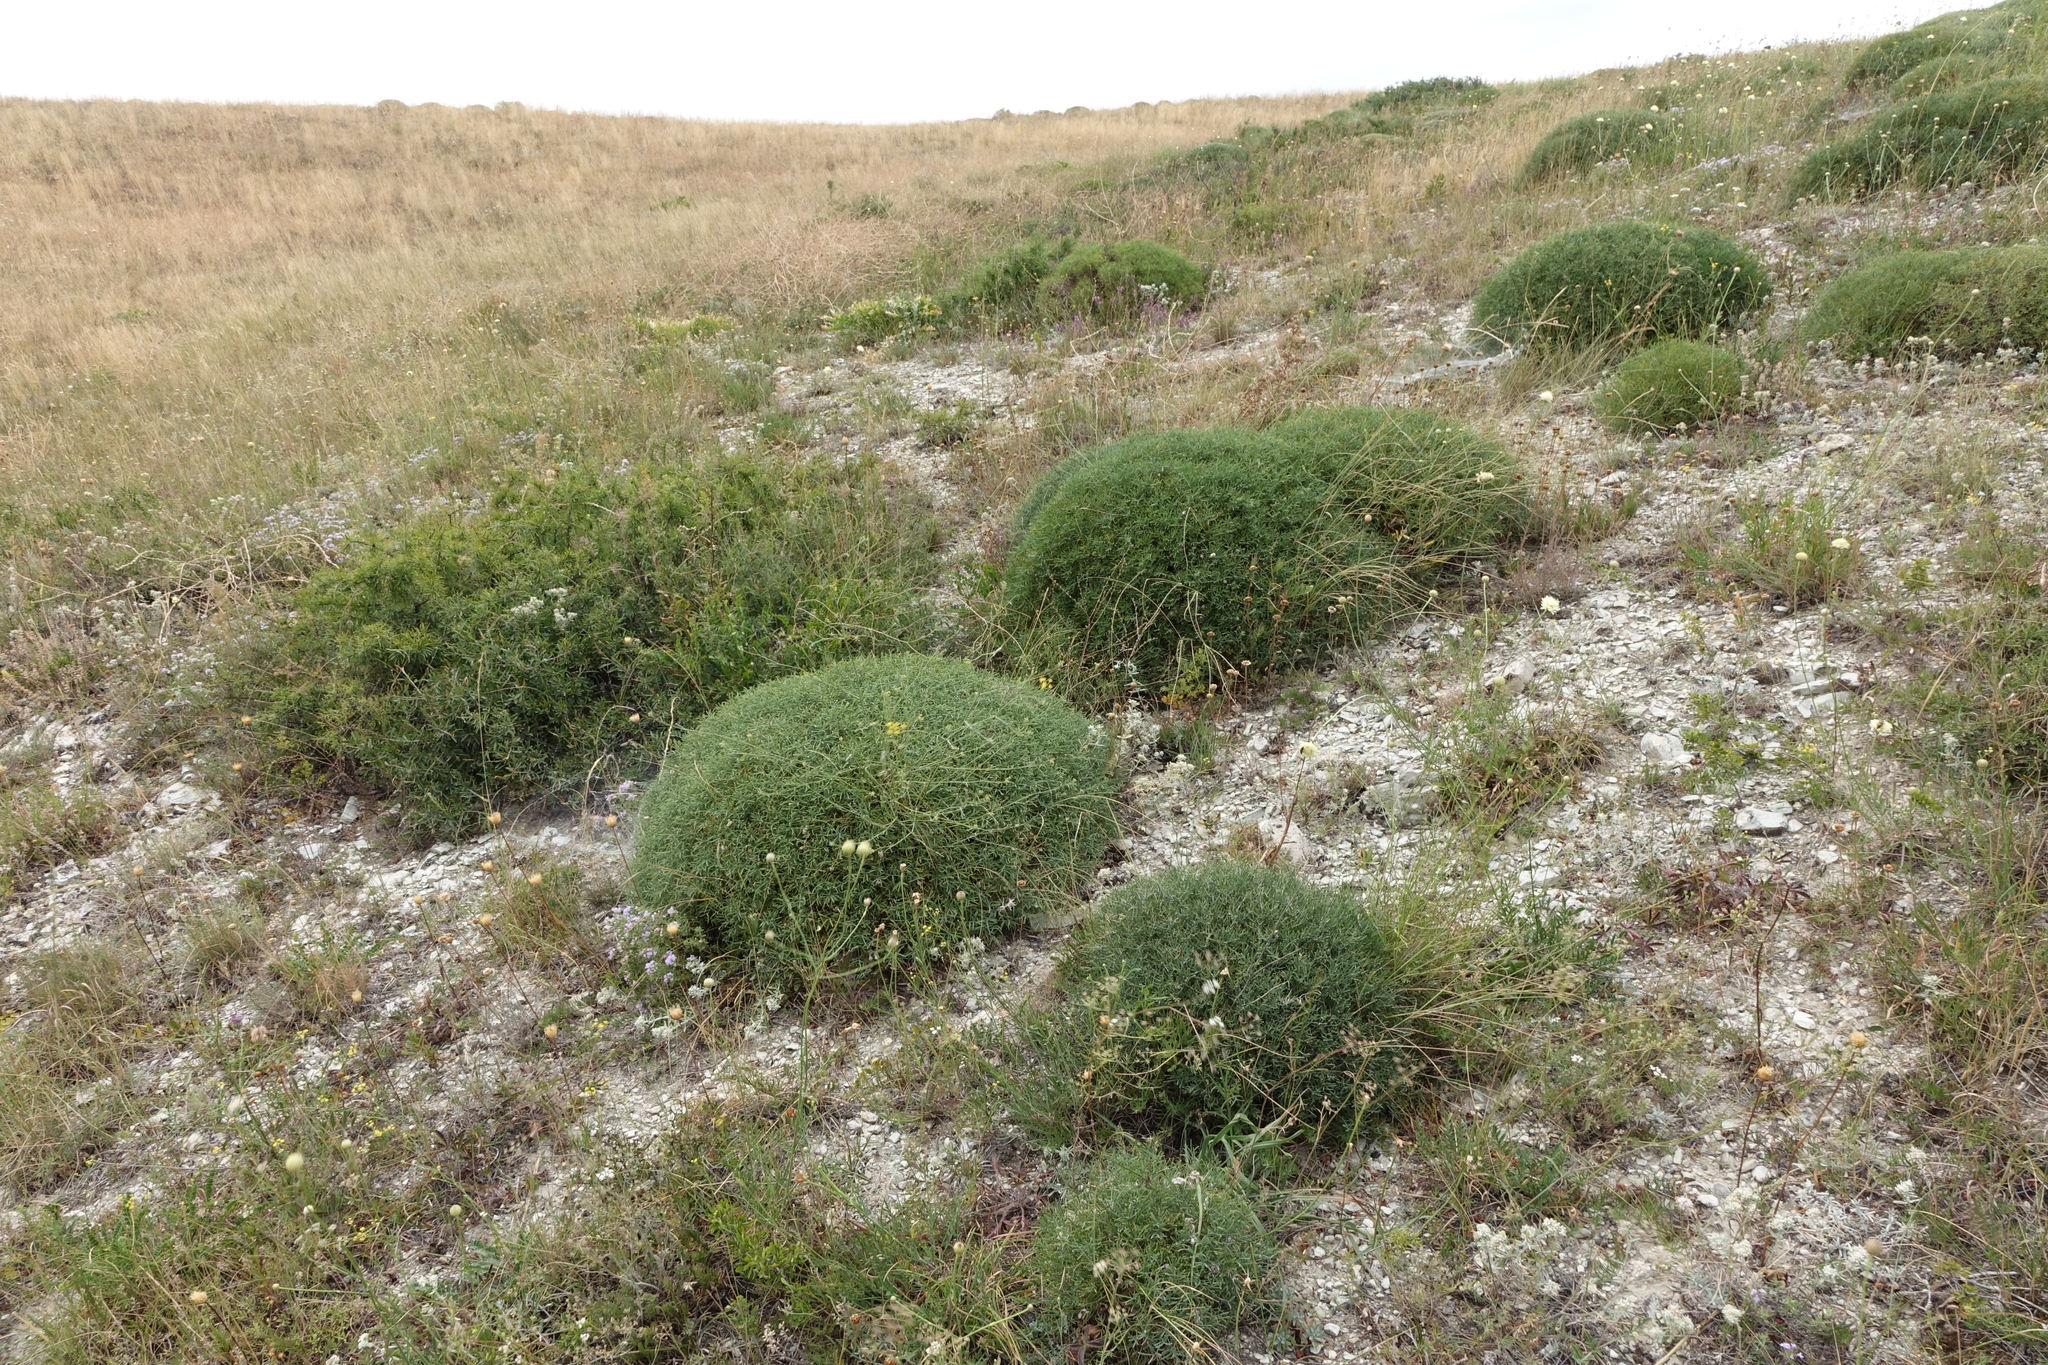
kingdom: Plantae
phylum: Tracheophyta
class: Magnoliopsida
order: Fabales
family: Fabaceae
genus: Onobrychis
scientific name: Onobrychis cornuta
